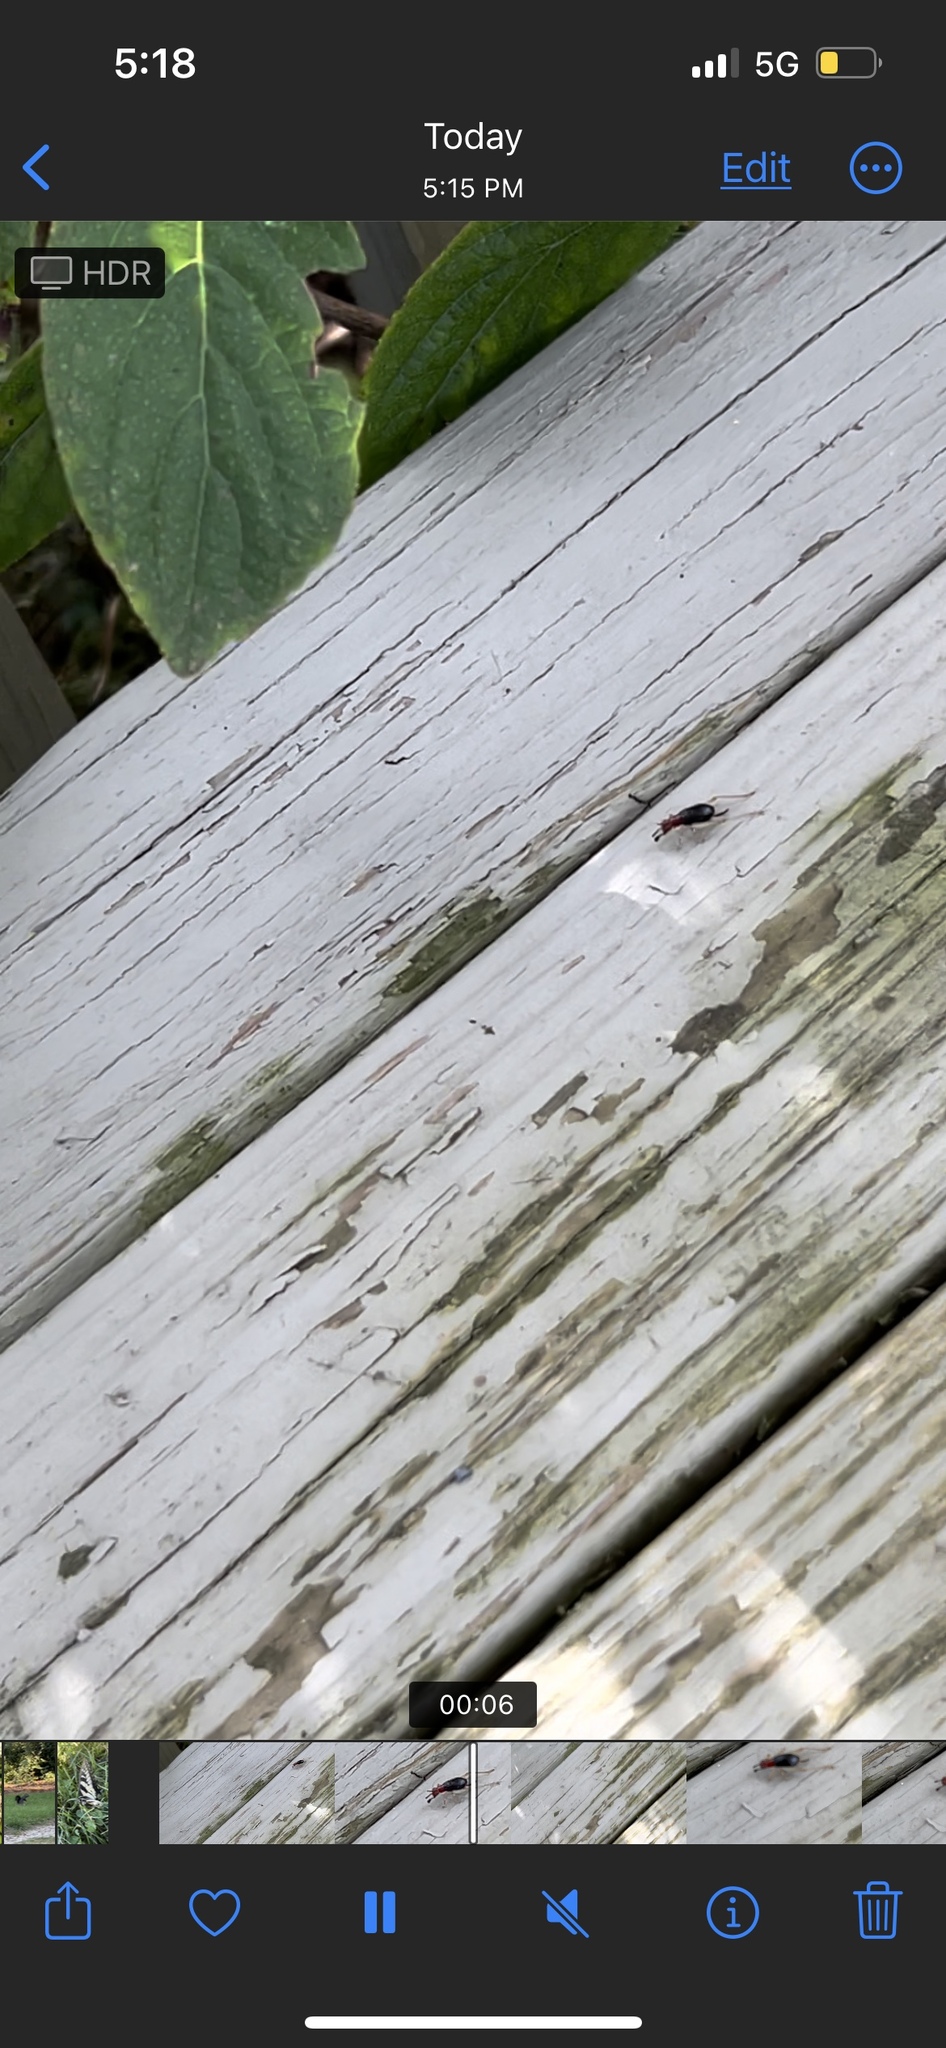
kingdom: Animalia
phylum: Arthropoda
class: Insecta
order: Orthoptera
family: Trigonidiidae
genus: Phyllopalpus
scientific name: Phyllopalpus pulchellus
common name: Handsome trig
